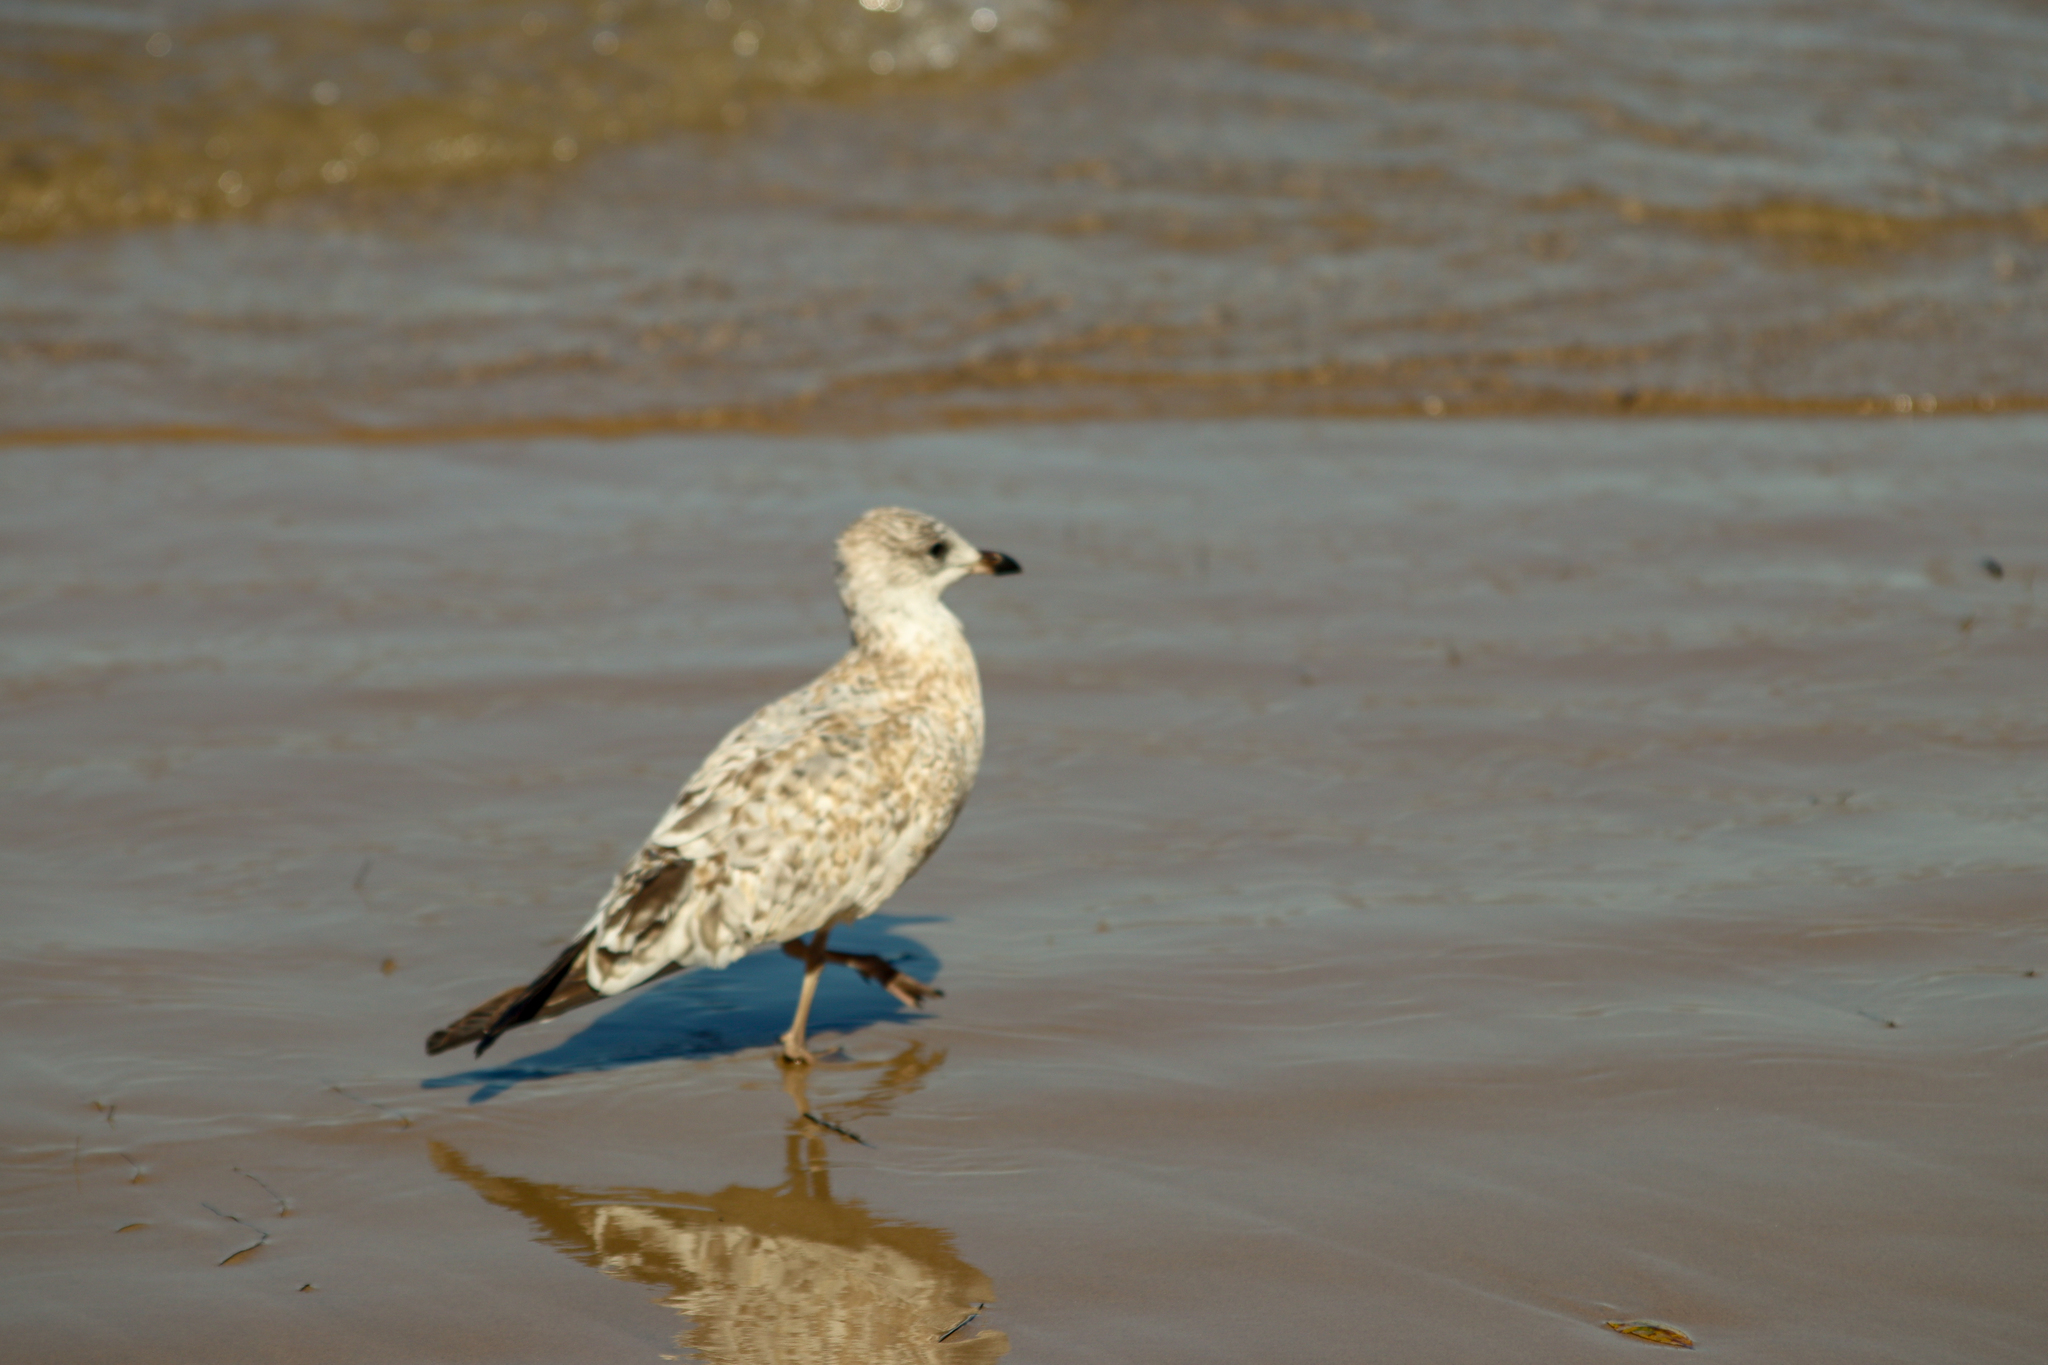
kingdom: Animalia
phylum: Chordata
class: Aves
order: Charadriiformes
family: Laridae
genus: Larus
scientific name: Larus delawarensis
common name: Ring-billed gull
